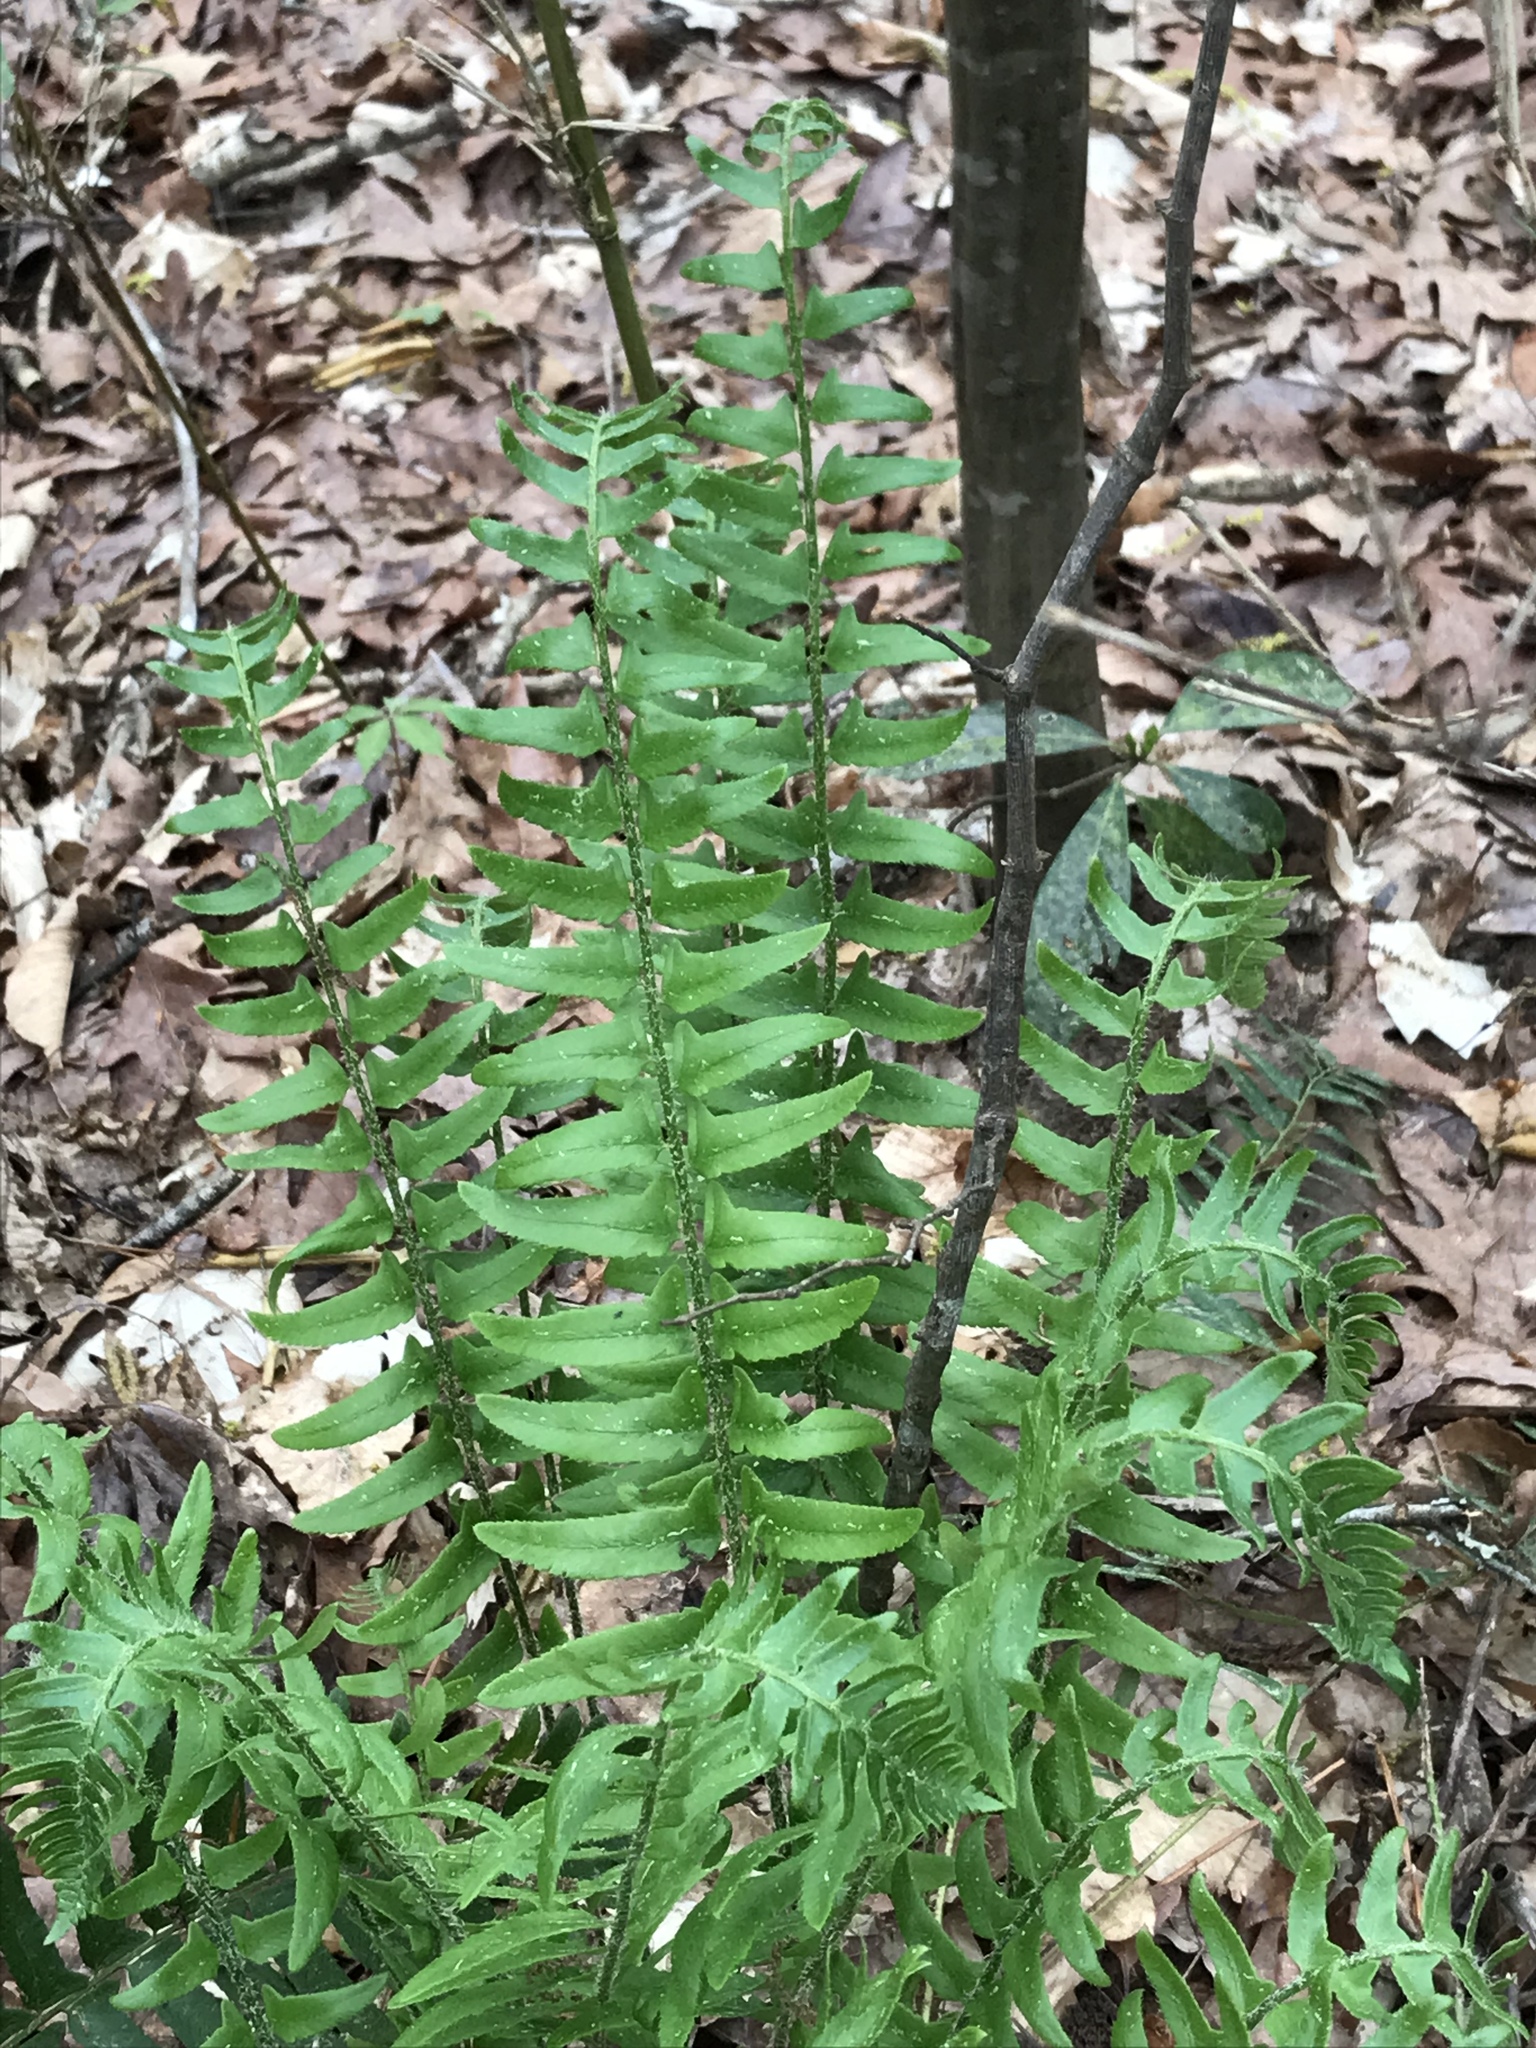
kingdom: Plantae
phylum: Tracheophyta
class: Polypodiopsida
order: Polypodiales
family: Dryopteridaceae
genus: Polystichum
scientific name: Polystichum acrostichoides
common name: Christmas fern
